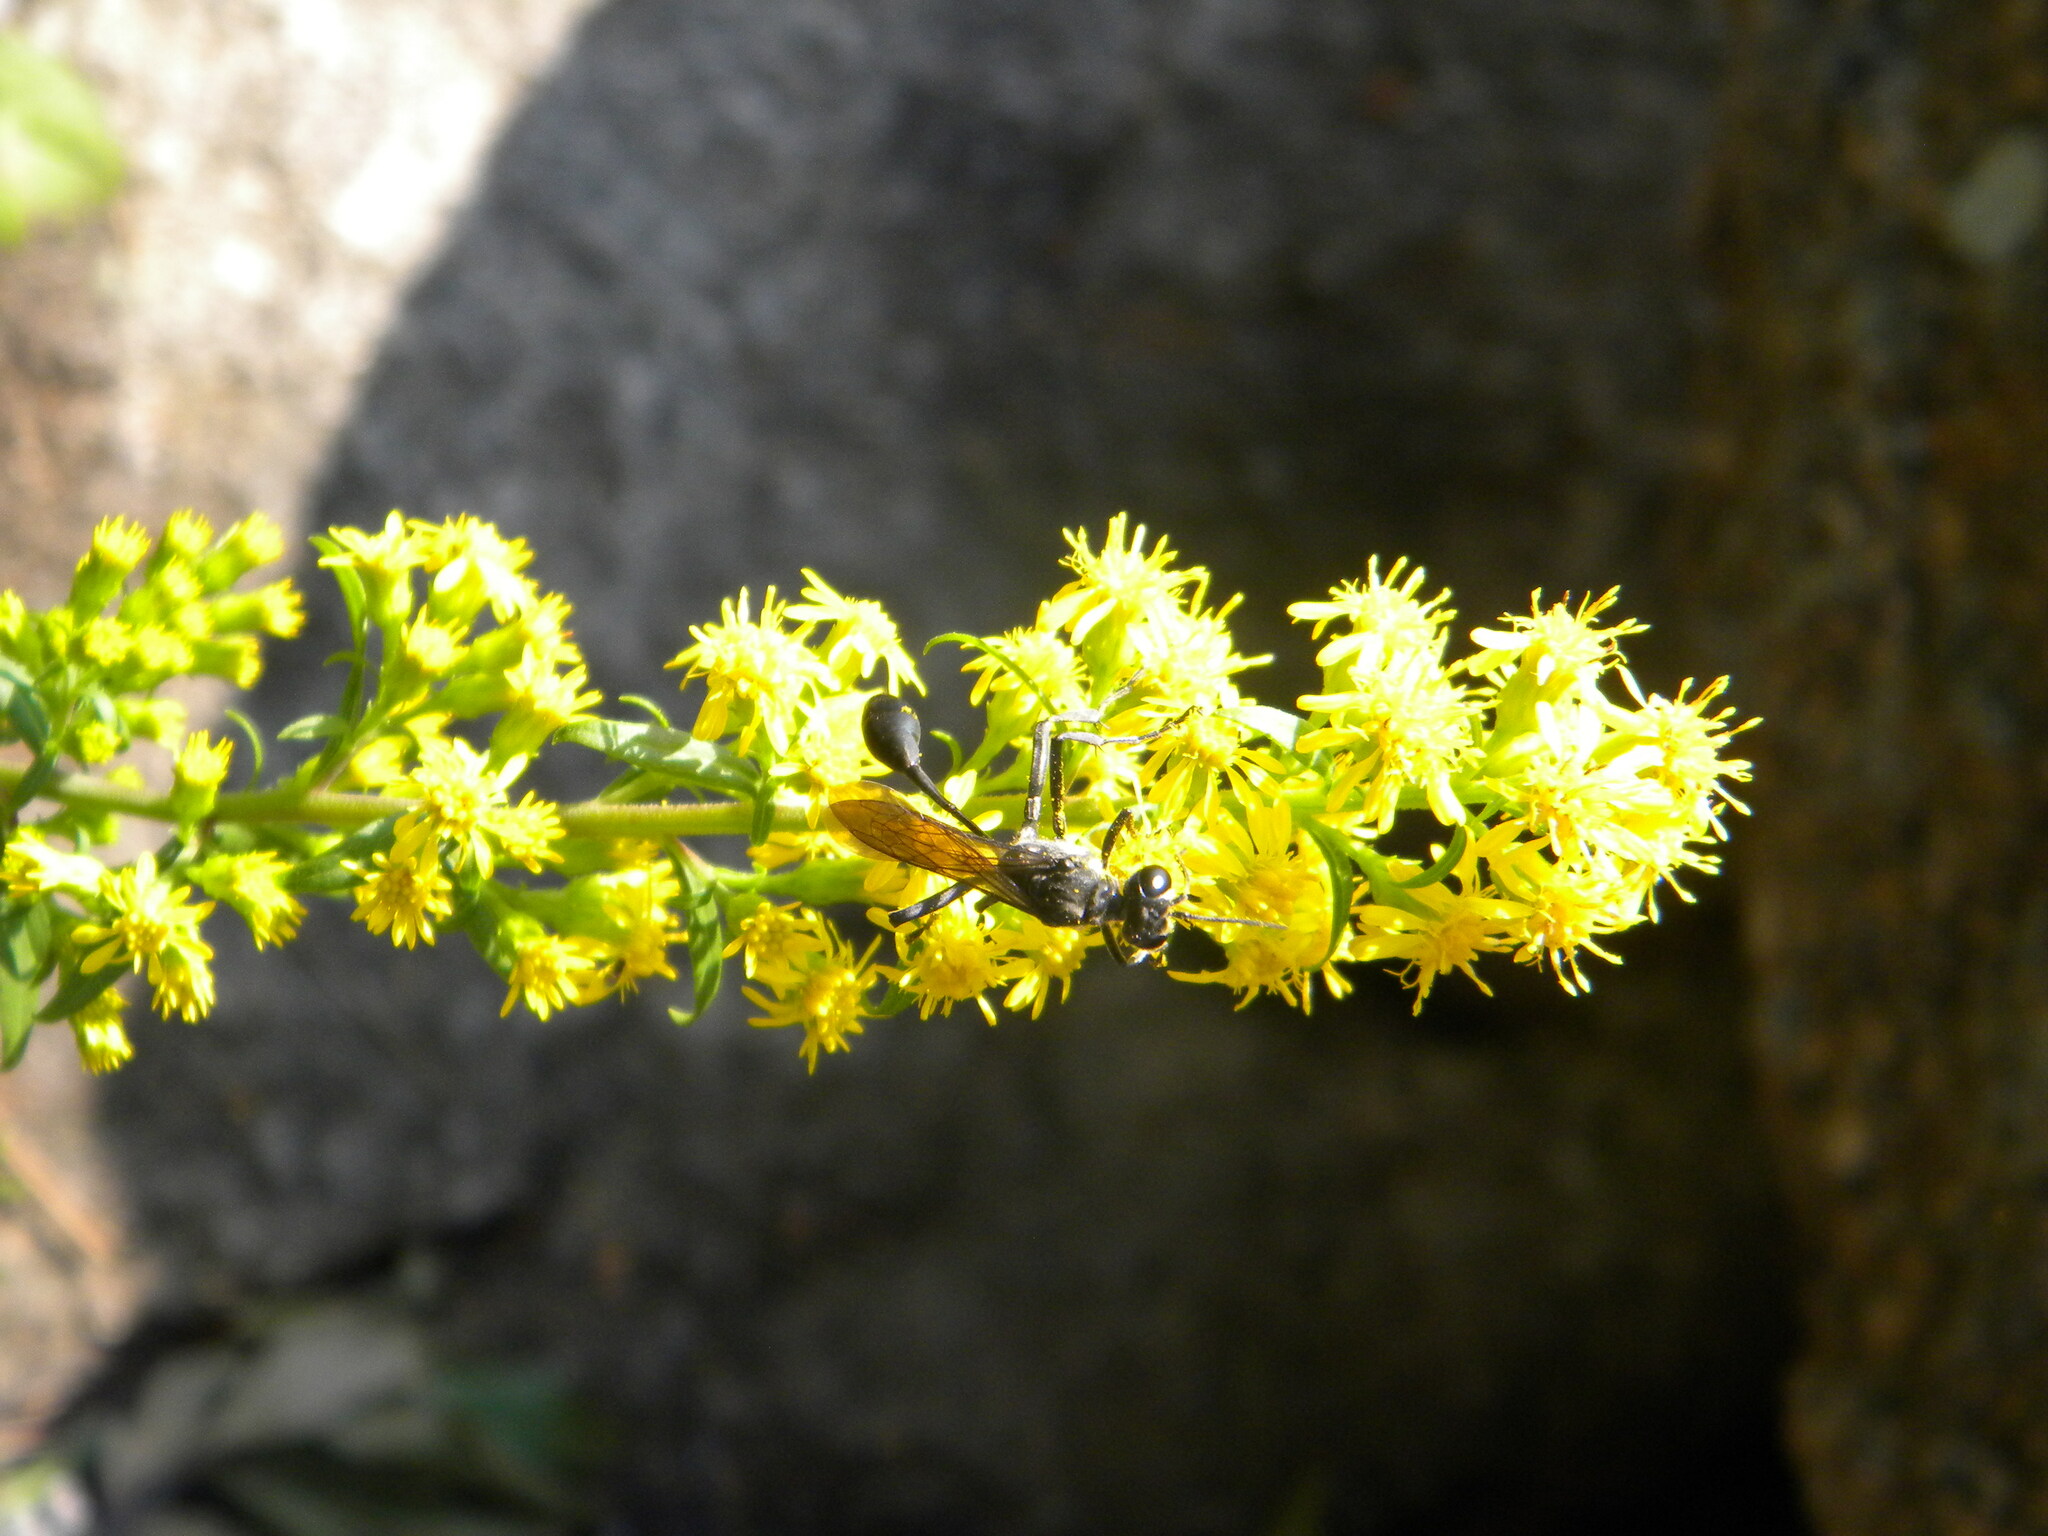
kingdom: Animalia
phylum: Arthropoda
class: Insecta
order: Hymenoptera
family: Sphecidae
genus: Eremnophila
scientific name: Eremnophila aureonotata
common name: Gold-marked thread-waisted wasp
